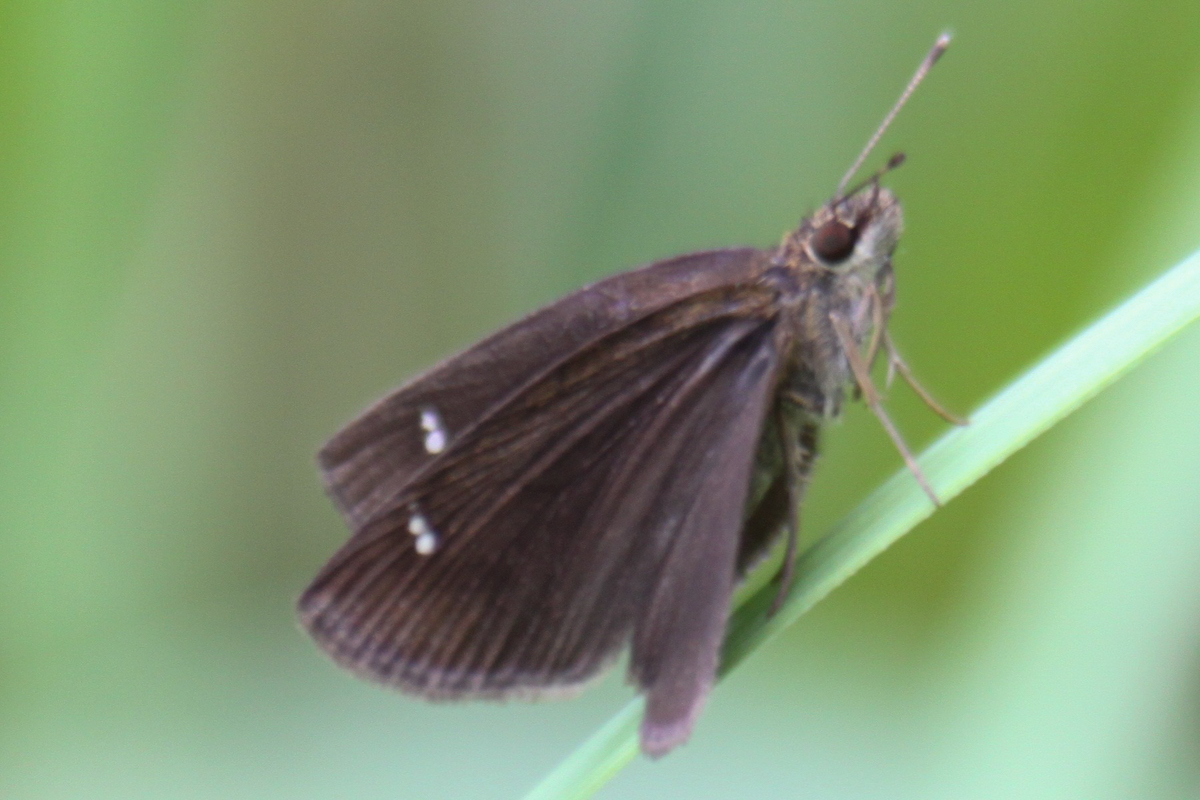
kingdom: Animalia
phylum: Arthropoda
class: Insecta
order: Lepidoptera
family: Hesperiidae
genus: Astictopterus
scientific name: Astictopterus jama
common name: Forest hopper
